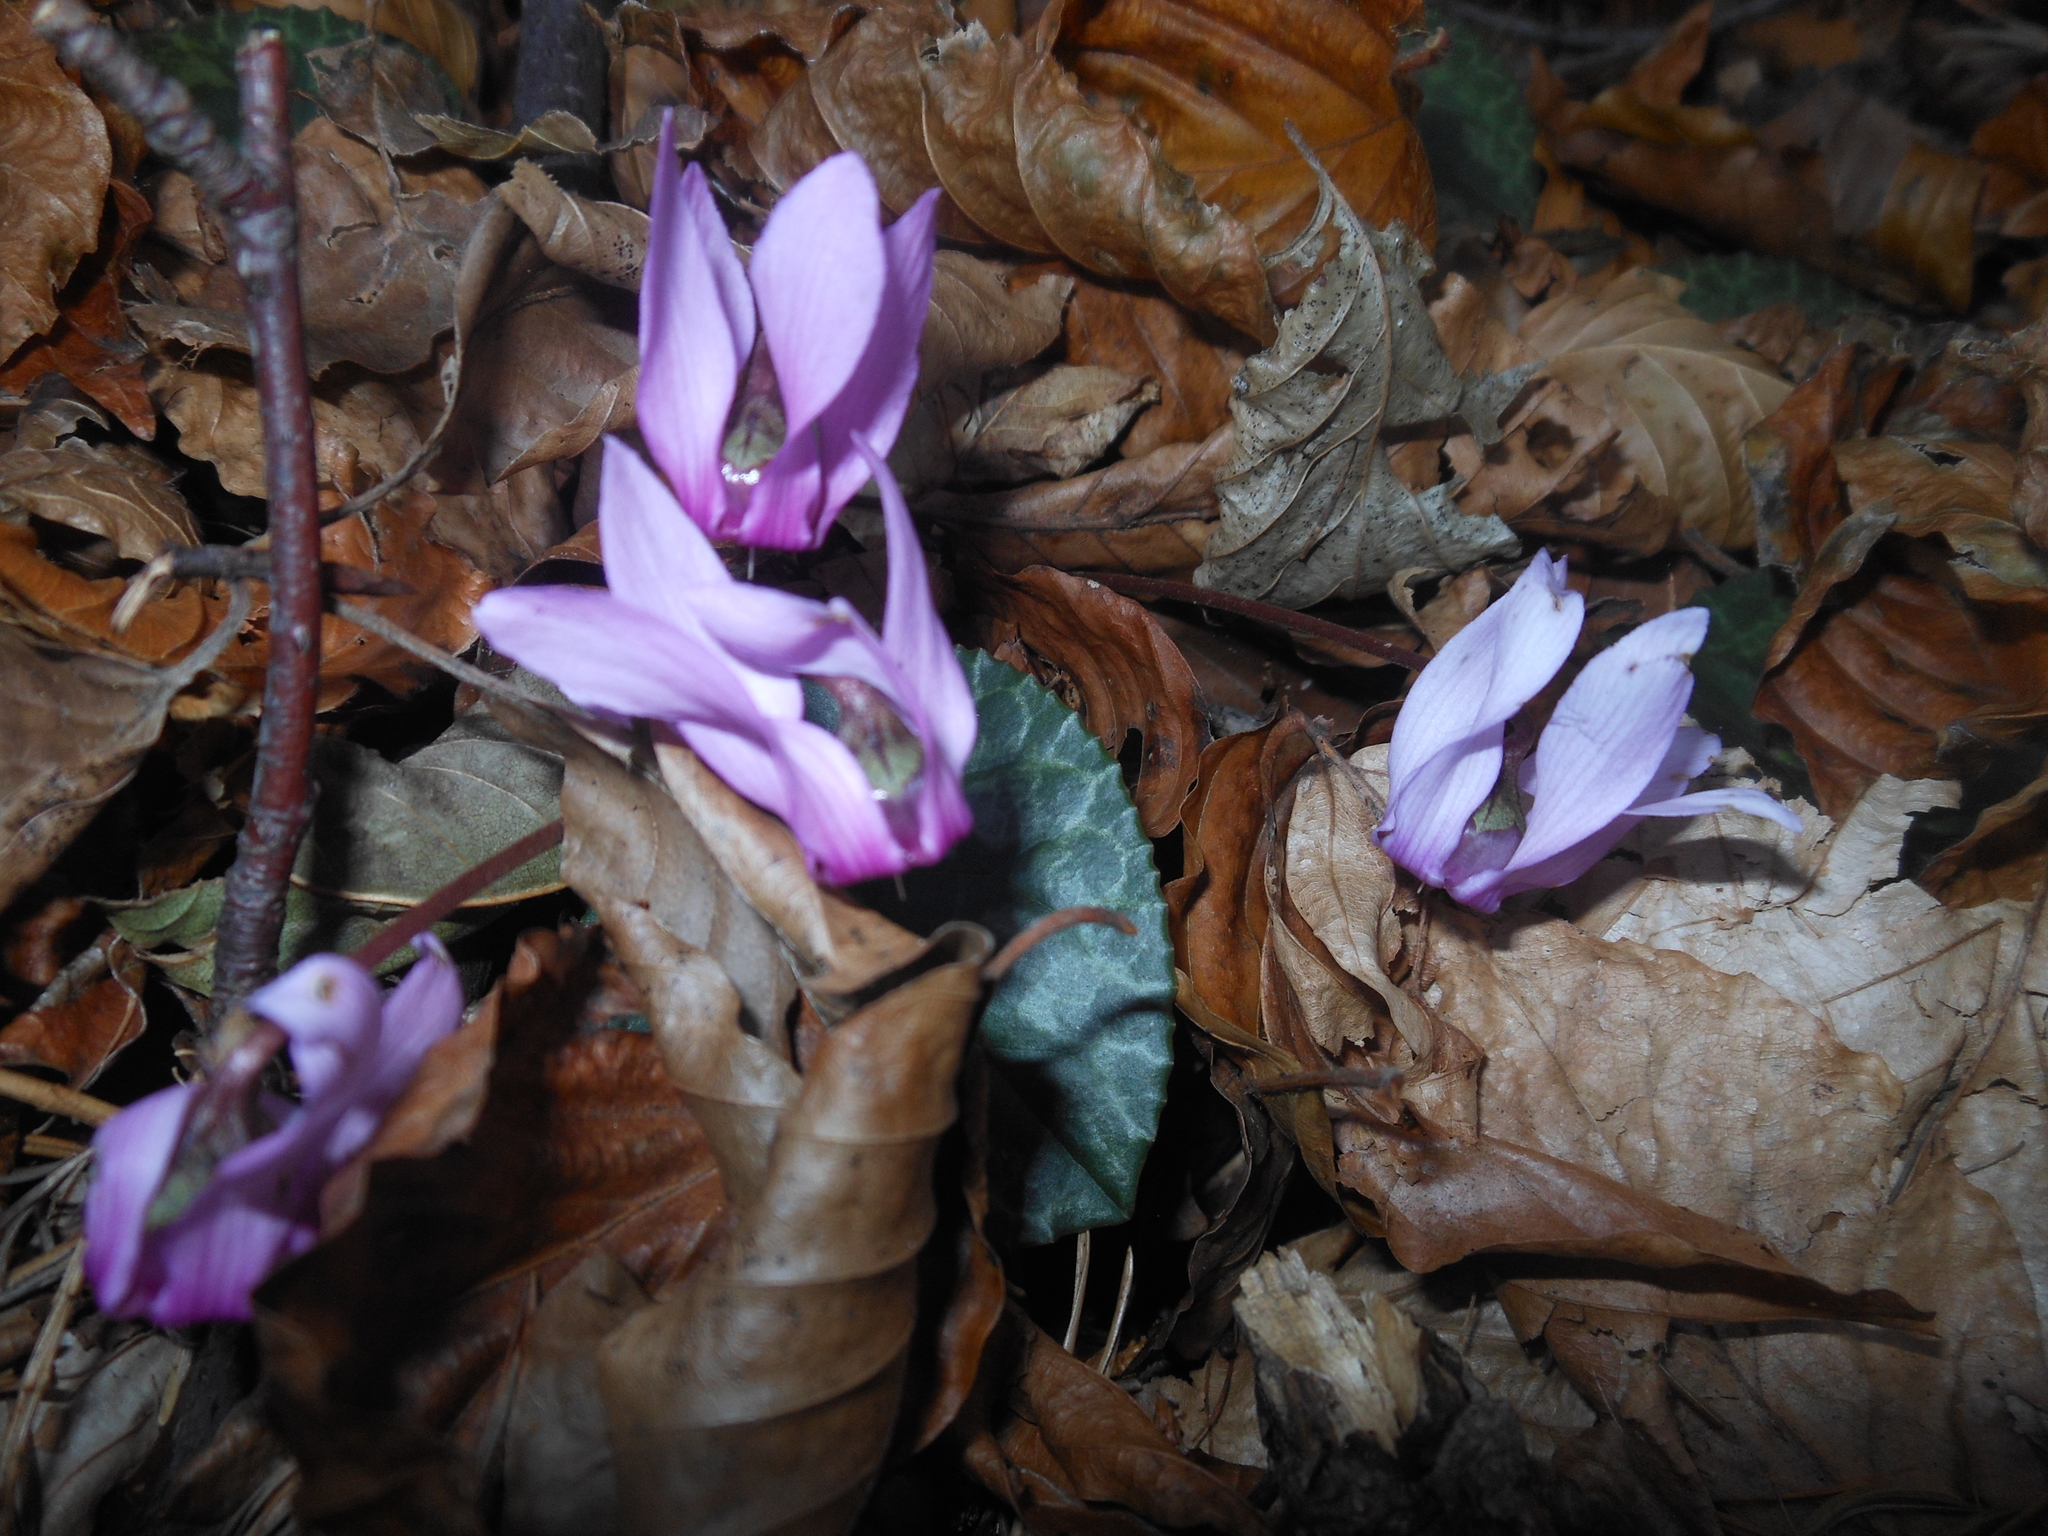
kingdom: Plantae
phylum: Tracheophyta
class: Magnoliopsida
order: Ericales
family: Primulaceae
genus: Cyclamen
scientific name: Cyclamen purpurascens
